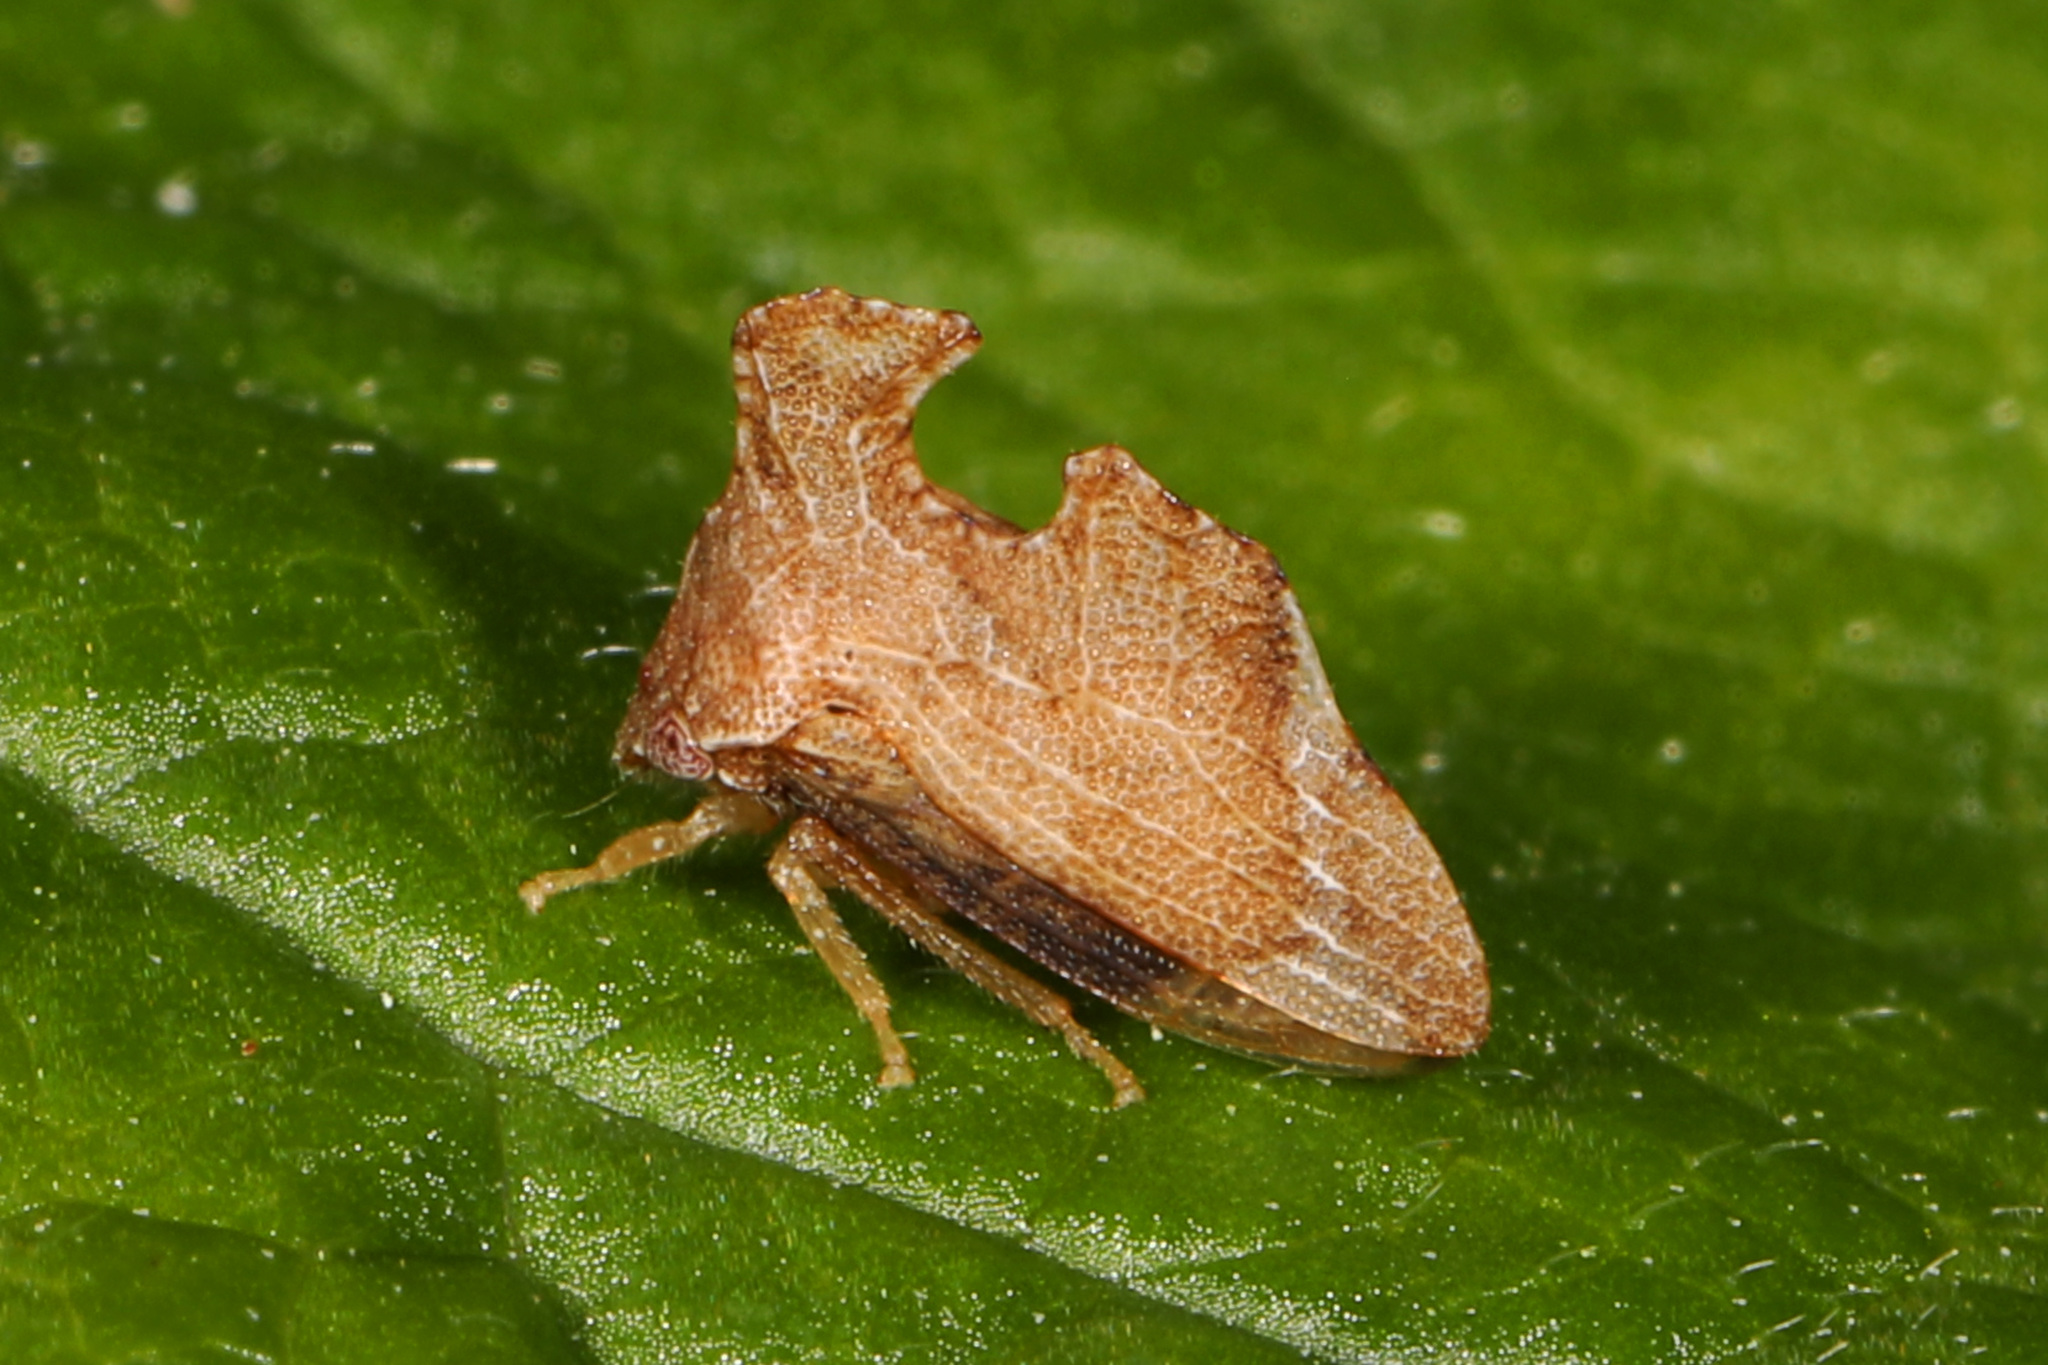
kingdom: Animalia
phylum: Arthropoda
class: Insecta
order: Hemiptera
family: Membracidae
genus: Entylia
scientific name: Entylia carinata
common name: Keeled treehopper
